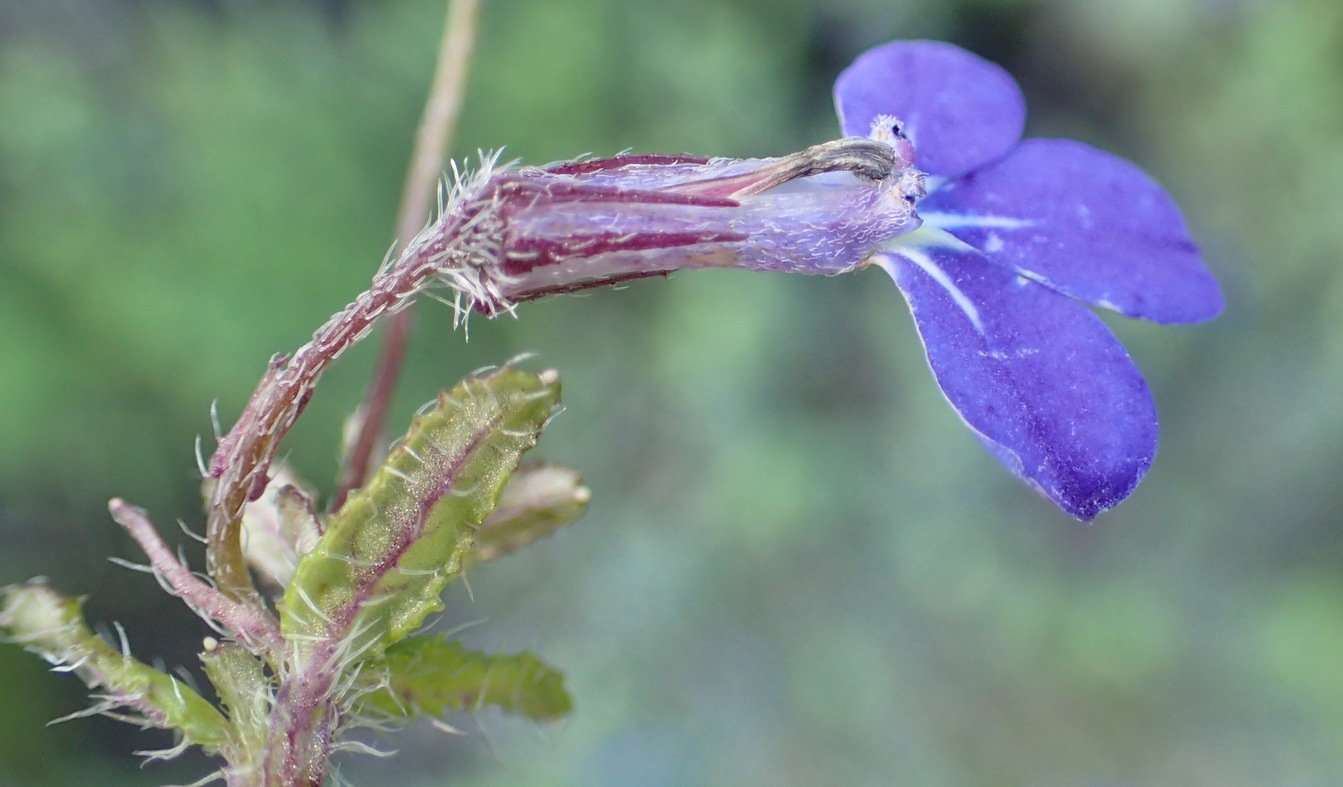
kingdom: Plantae
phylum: Tracheophyta
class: Magnoliopsida
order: Asterales
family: Campanulaceae
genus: Lobelia
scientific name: Lobelia neglecta
